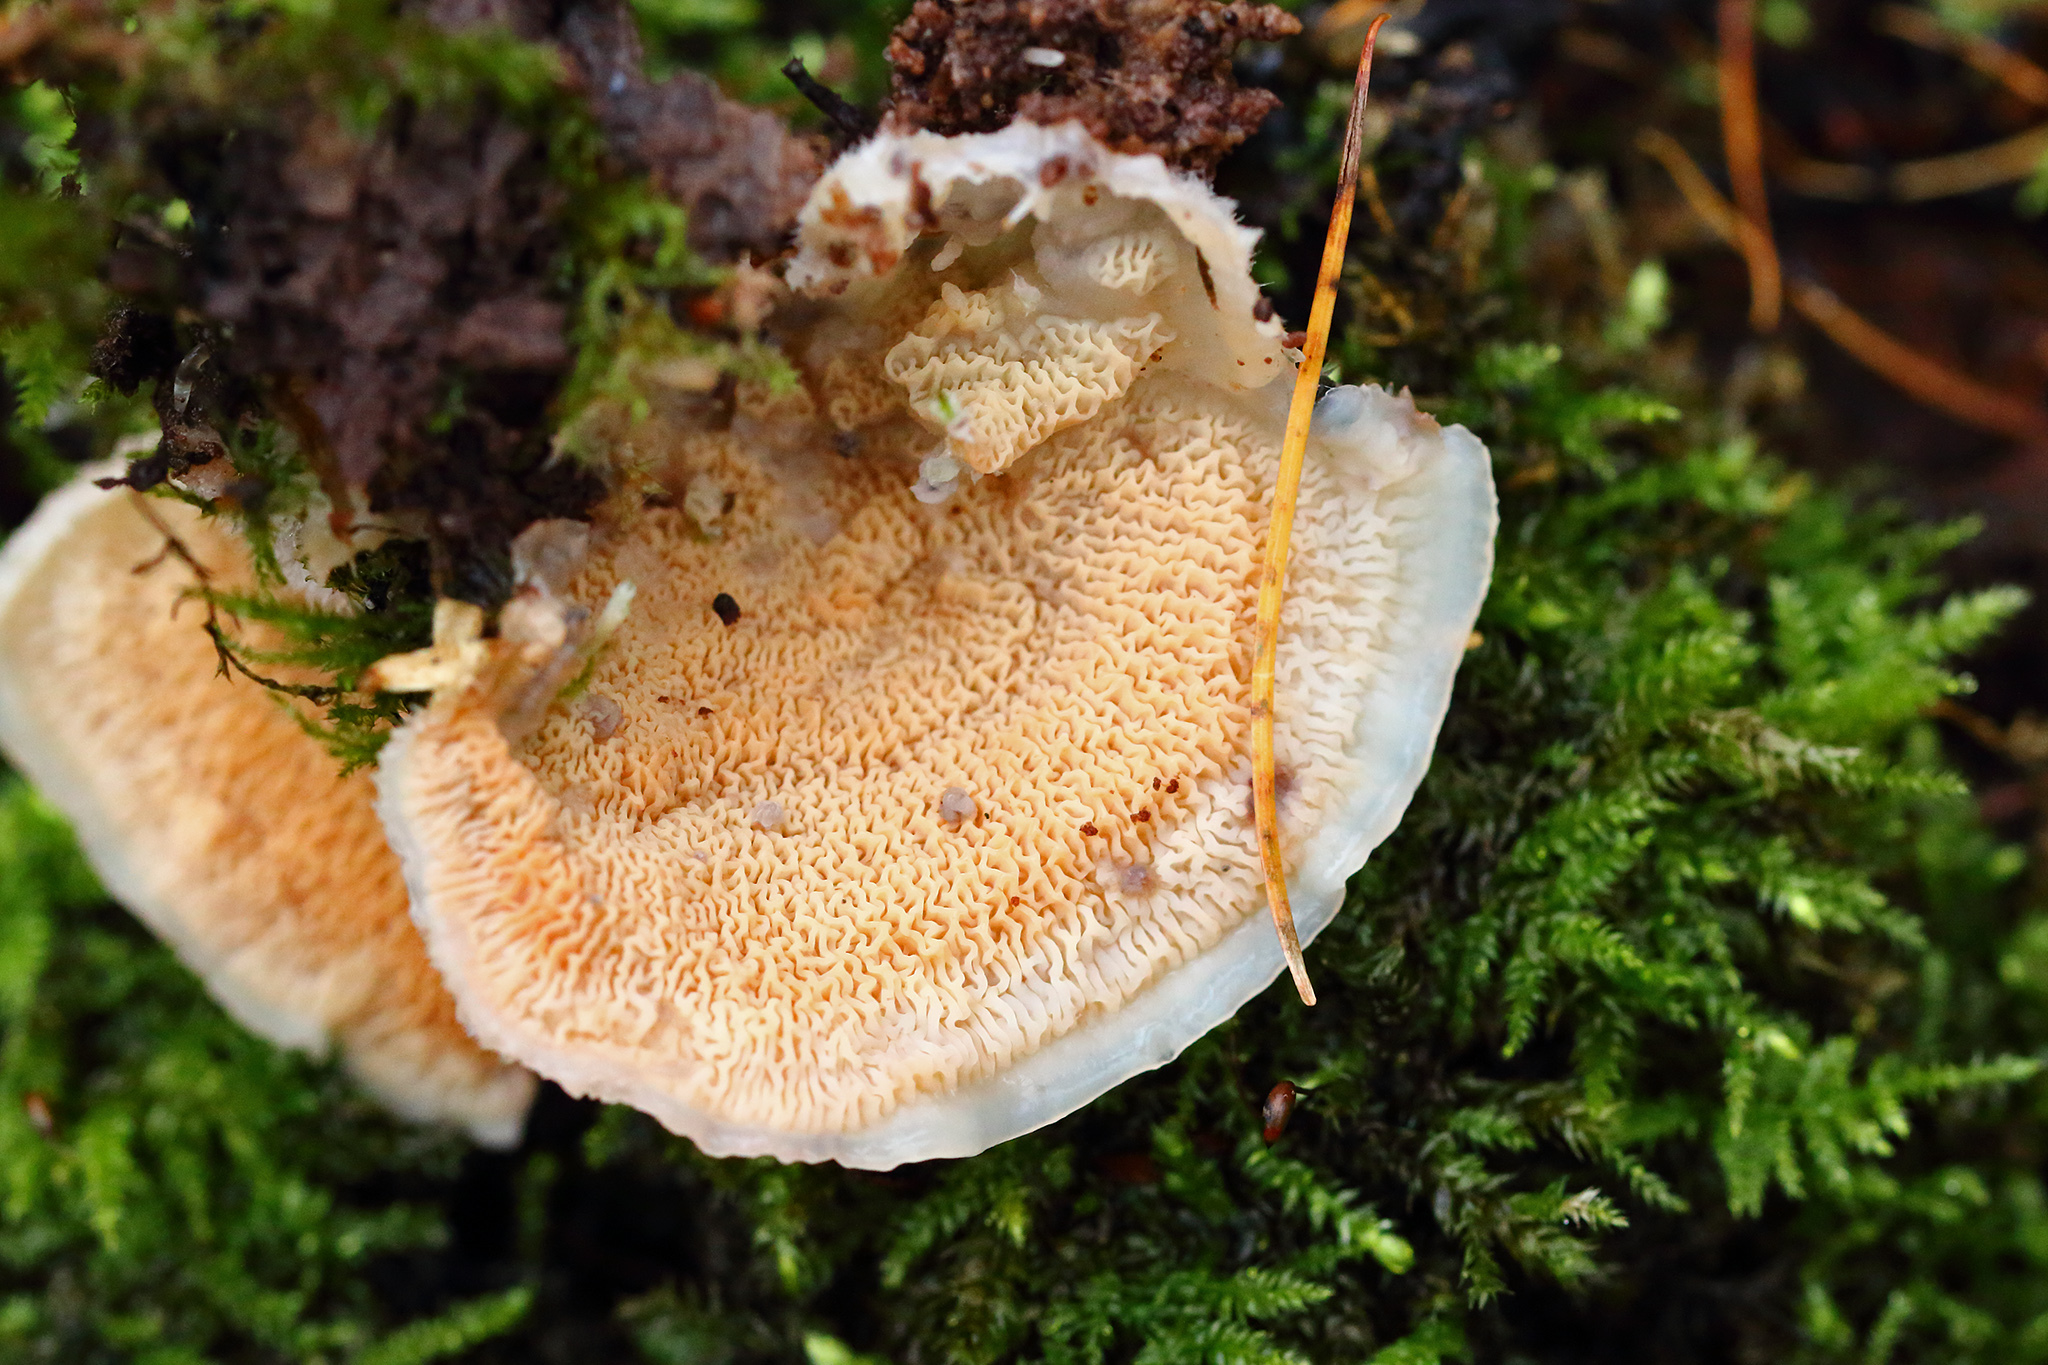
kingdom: Fungi
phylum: Basidiomycota
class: Agaricomycetes
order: Polyporales
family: Meruliaceae
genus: Phlebia
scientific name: Phlebia tremellosa
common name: Jelly rot
